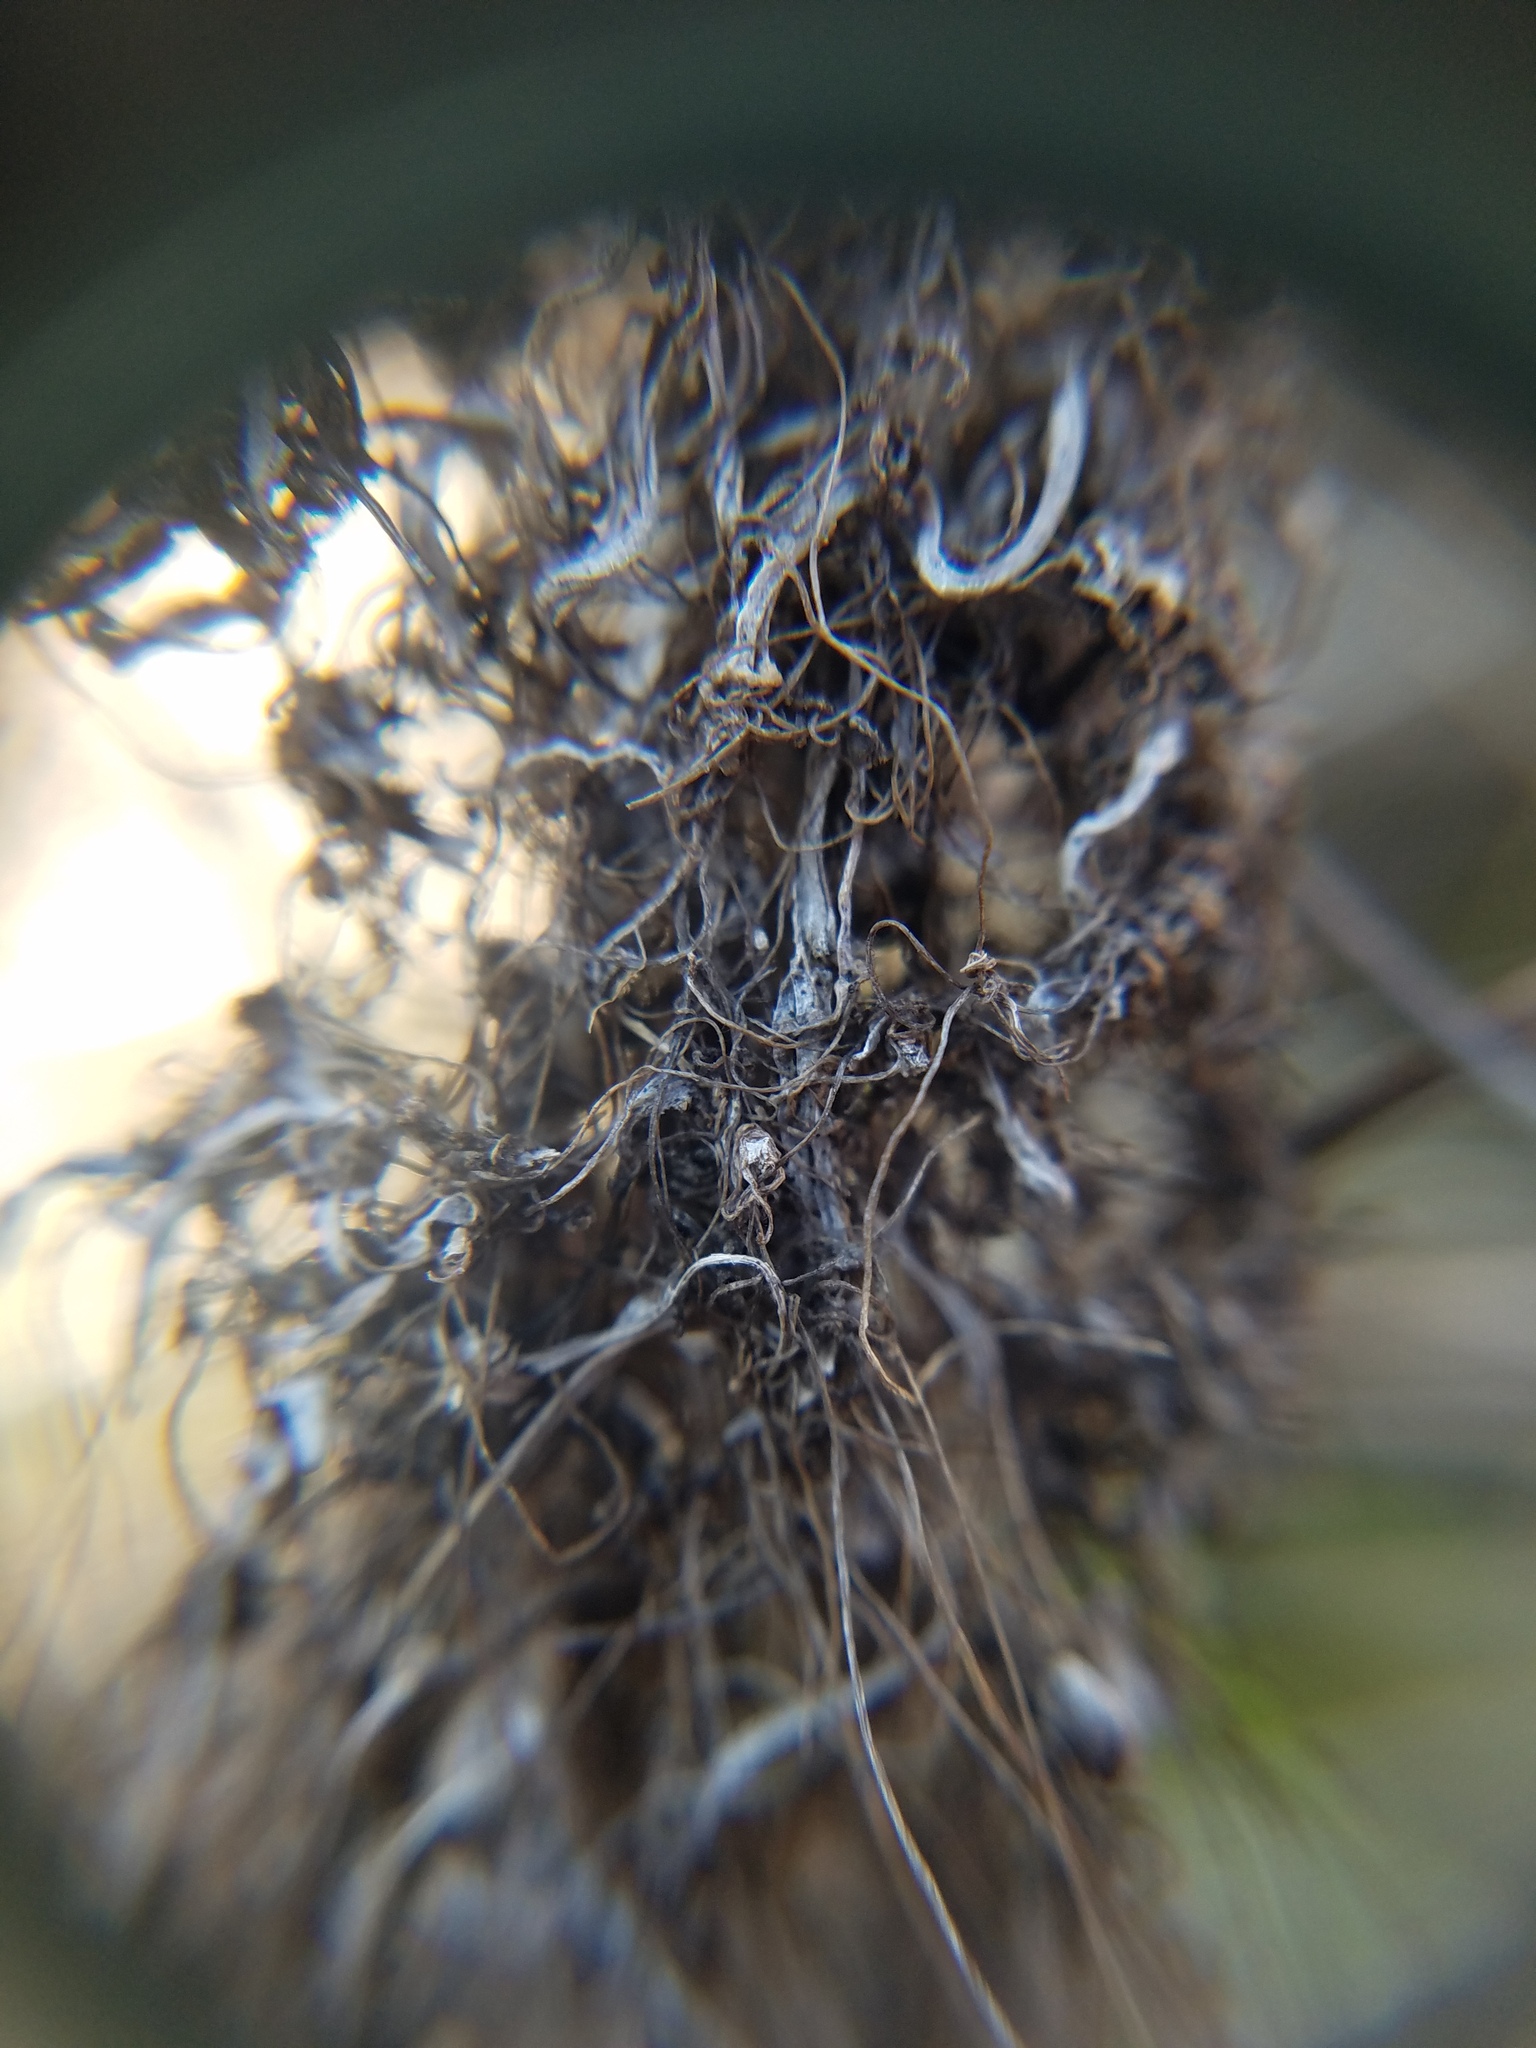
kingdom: Plantae
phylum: Tracheophyta
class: Magnoliopsida
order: Solanales
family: Convolvulaceae
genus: Cuscuta
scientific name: Cuscuta harperi
